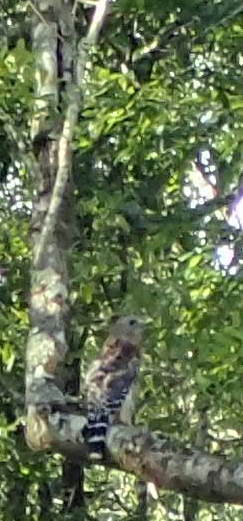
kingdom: Animalia
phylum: Chordata
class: Aves
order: Accipitriformes
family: Accipitridae
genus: Buteo
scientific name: Buteo lineatus
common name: Red-shouldered hawk
